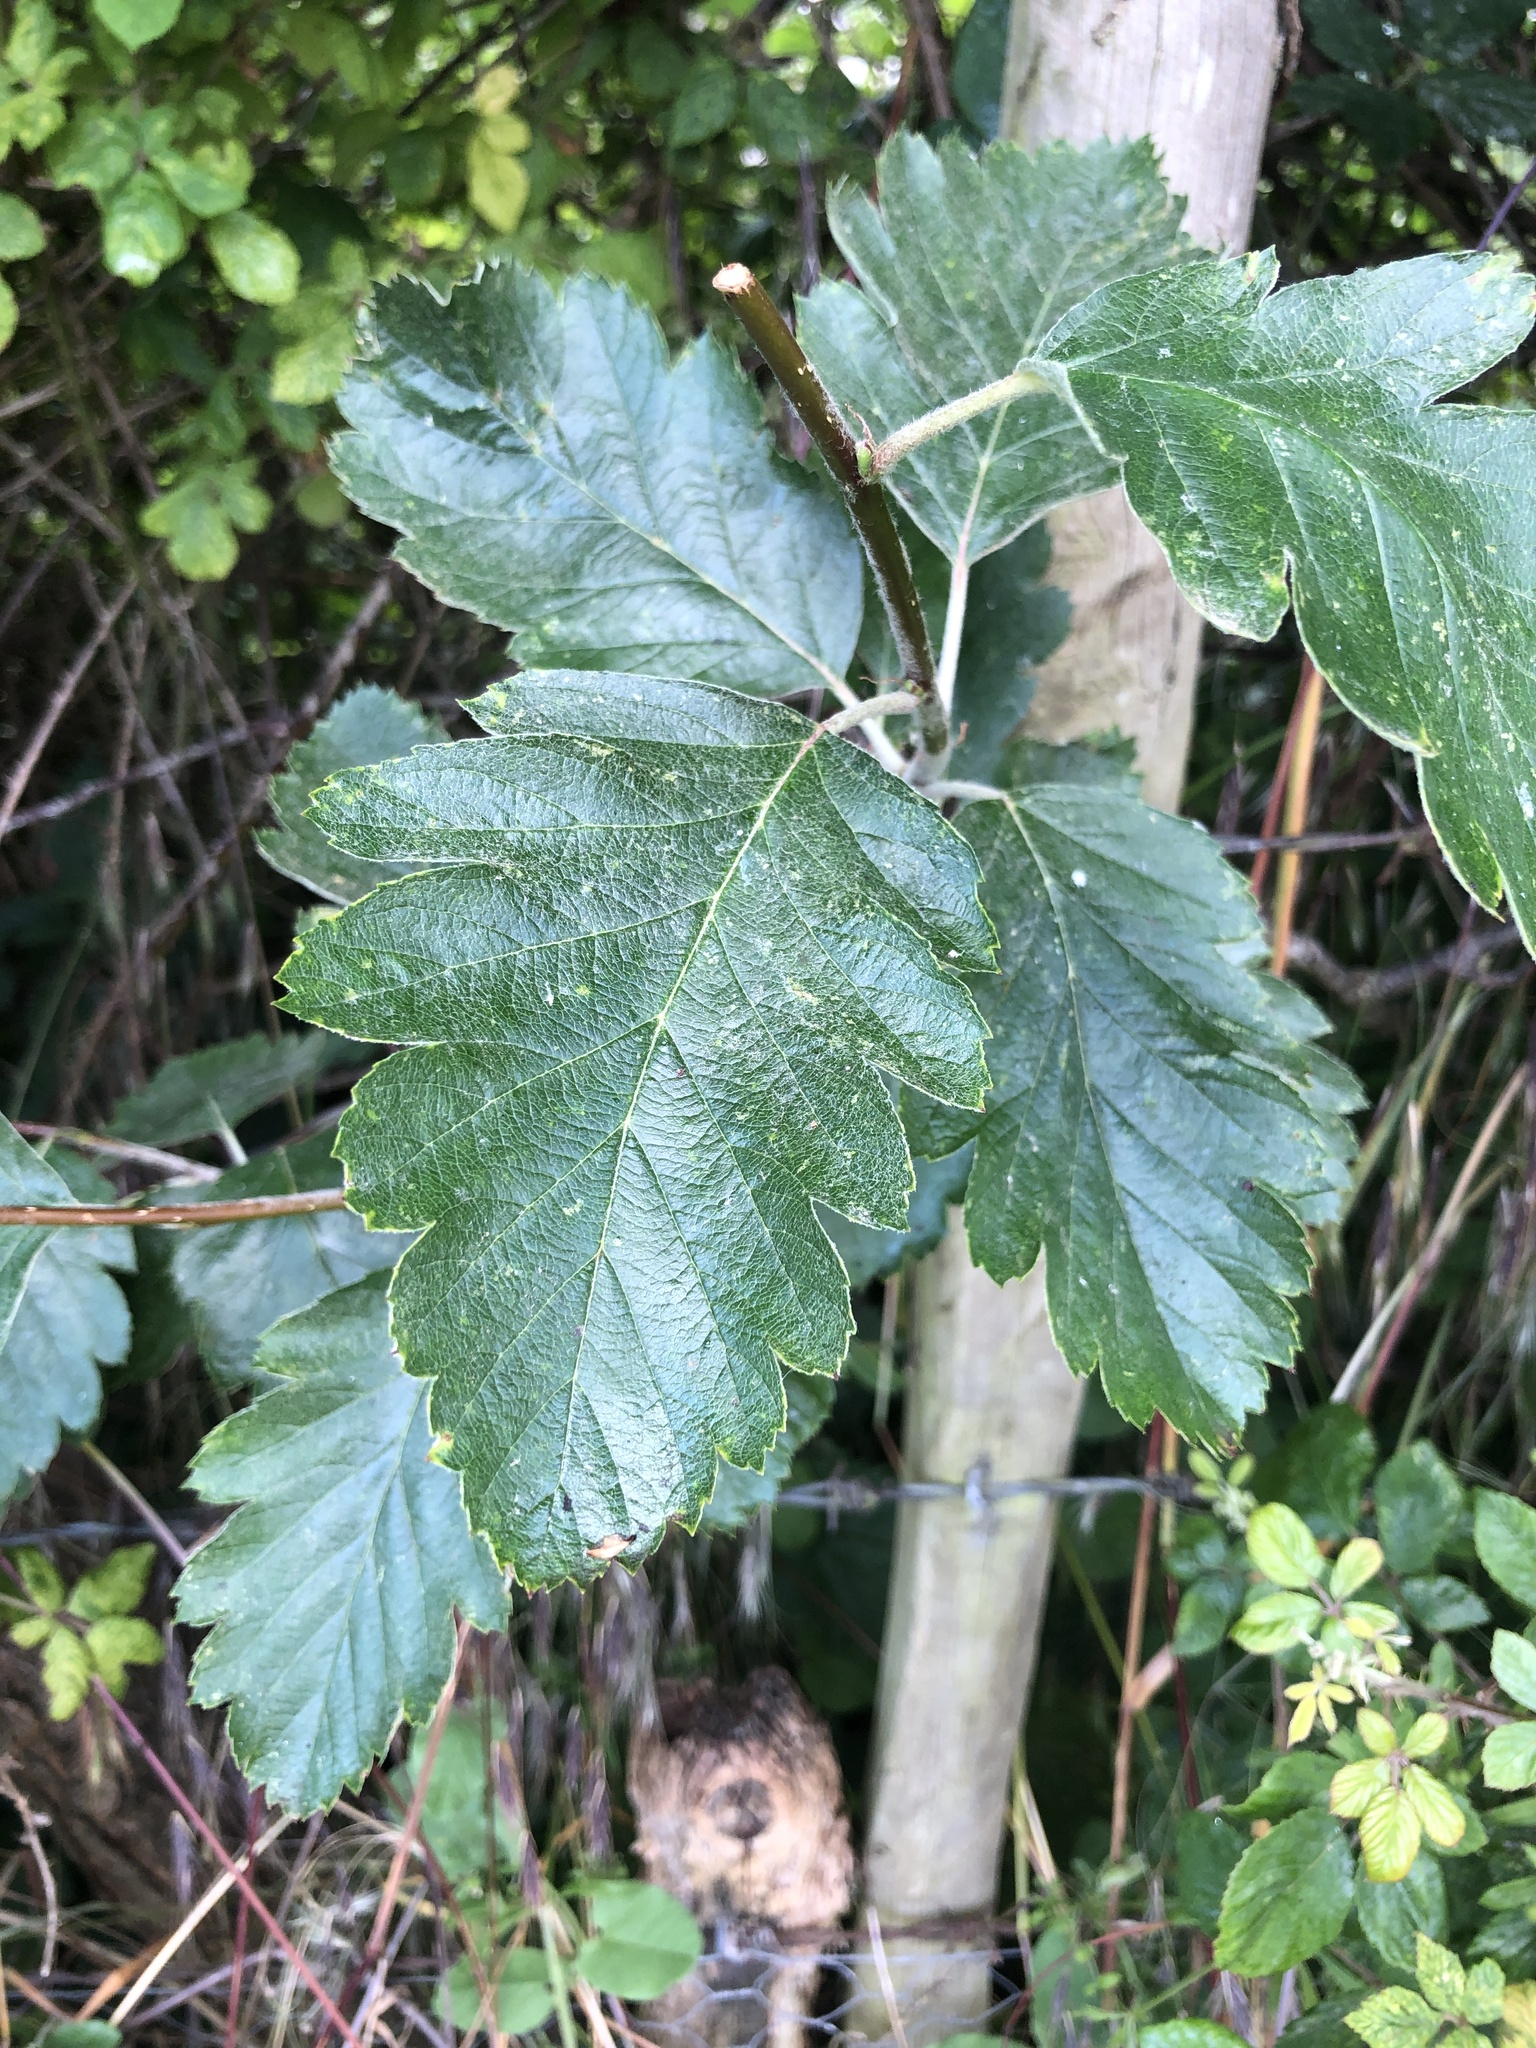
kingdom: Plantae
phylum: Tracheophyta
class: Magnoliopsida
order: Rosales
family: Rosaceae
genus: Scandosorbus
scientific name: Scandosorbus intermedia
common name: Swedish whitebeam
